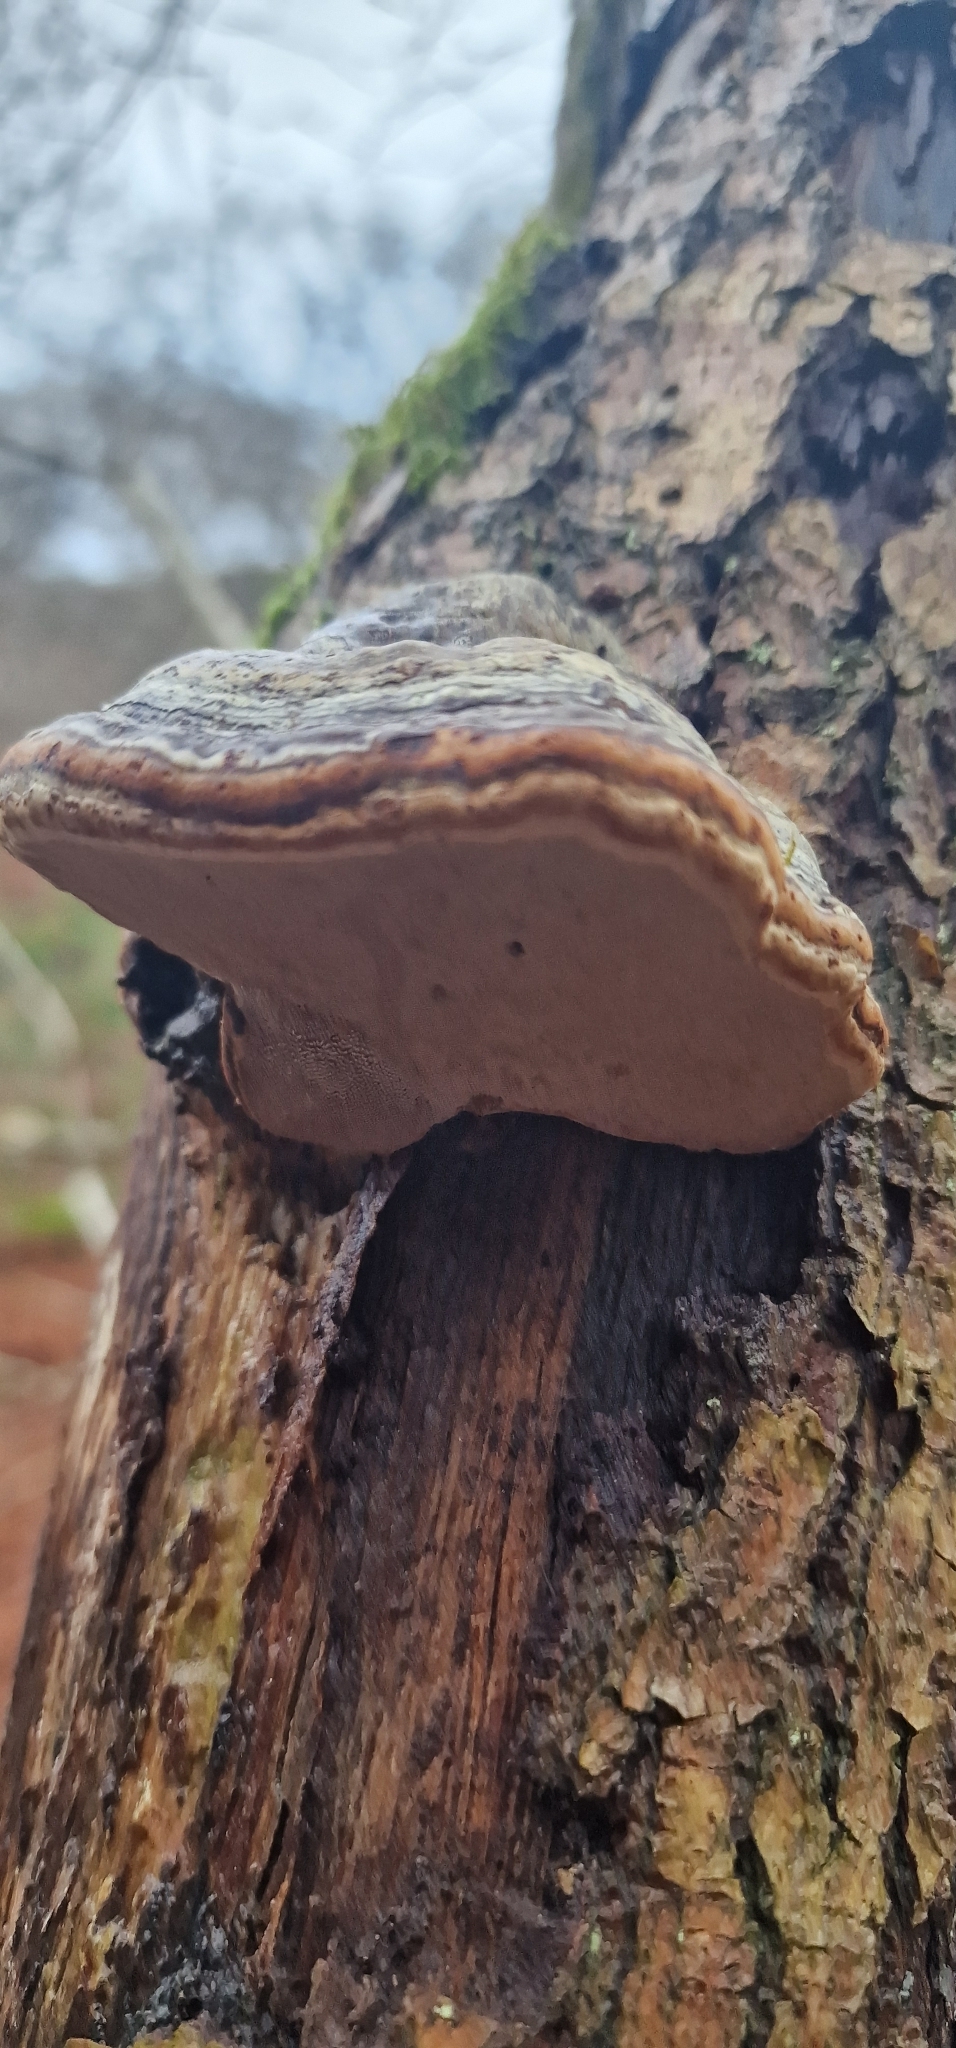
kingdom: Fungi
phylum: Basidiomycota
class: Agaricomycetes
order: Polyporales
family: Polyporaceae
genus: Fomes
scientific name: Fomes fomentarius
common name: Hoof fungus
